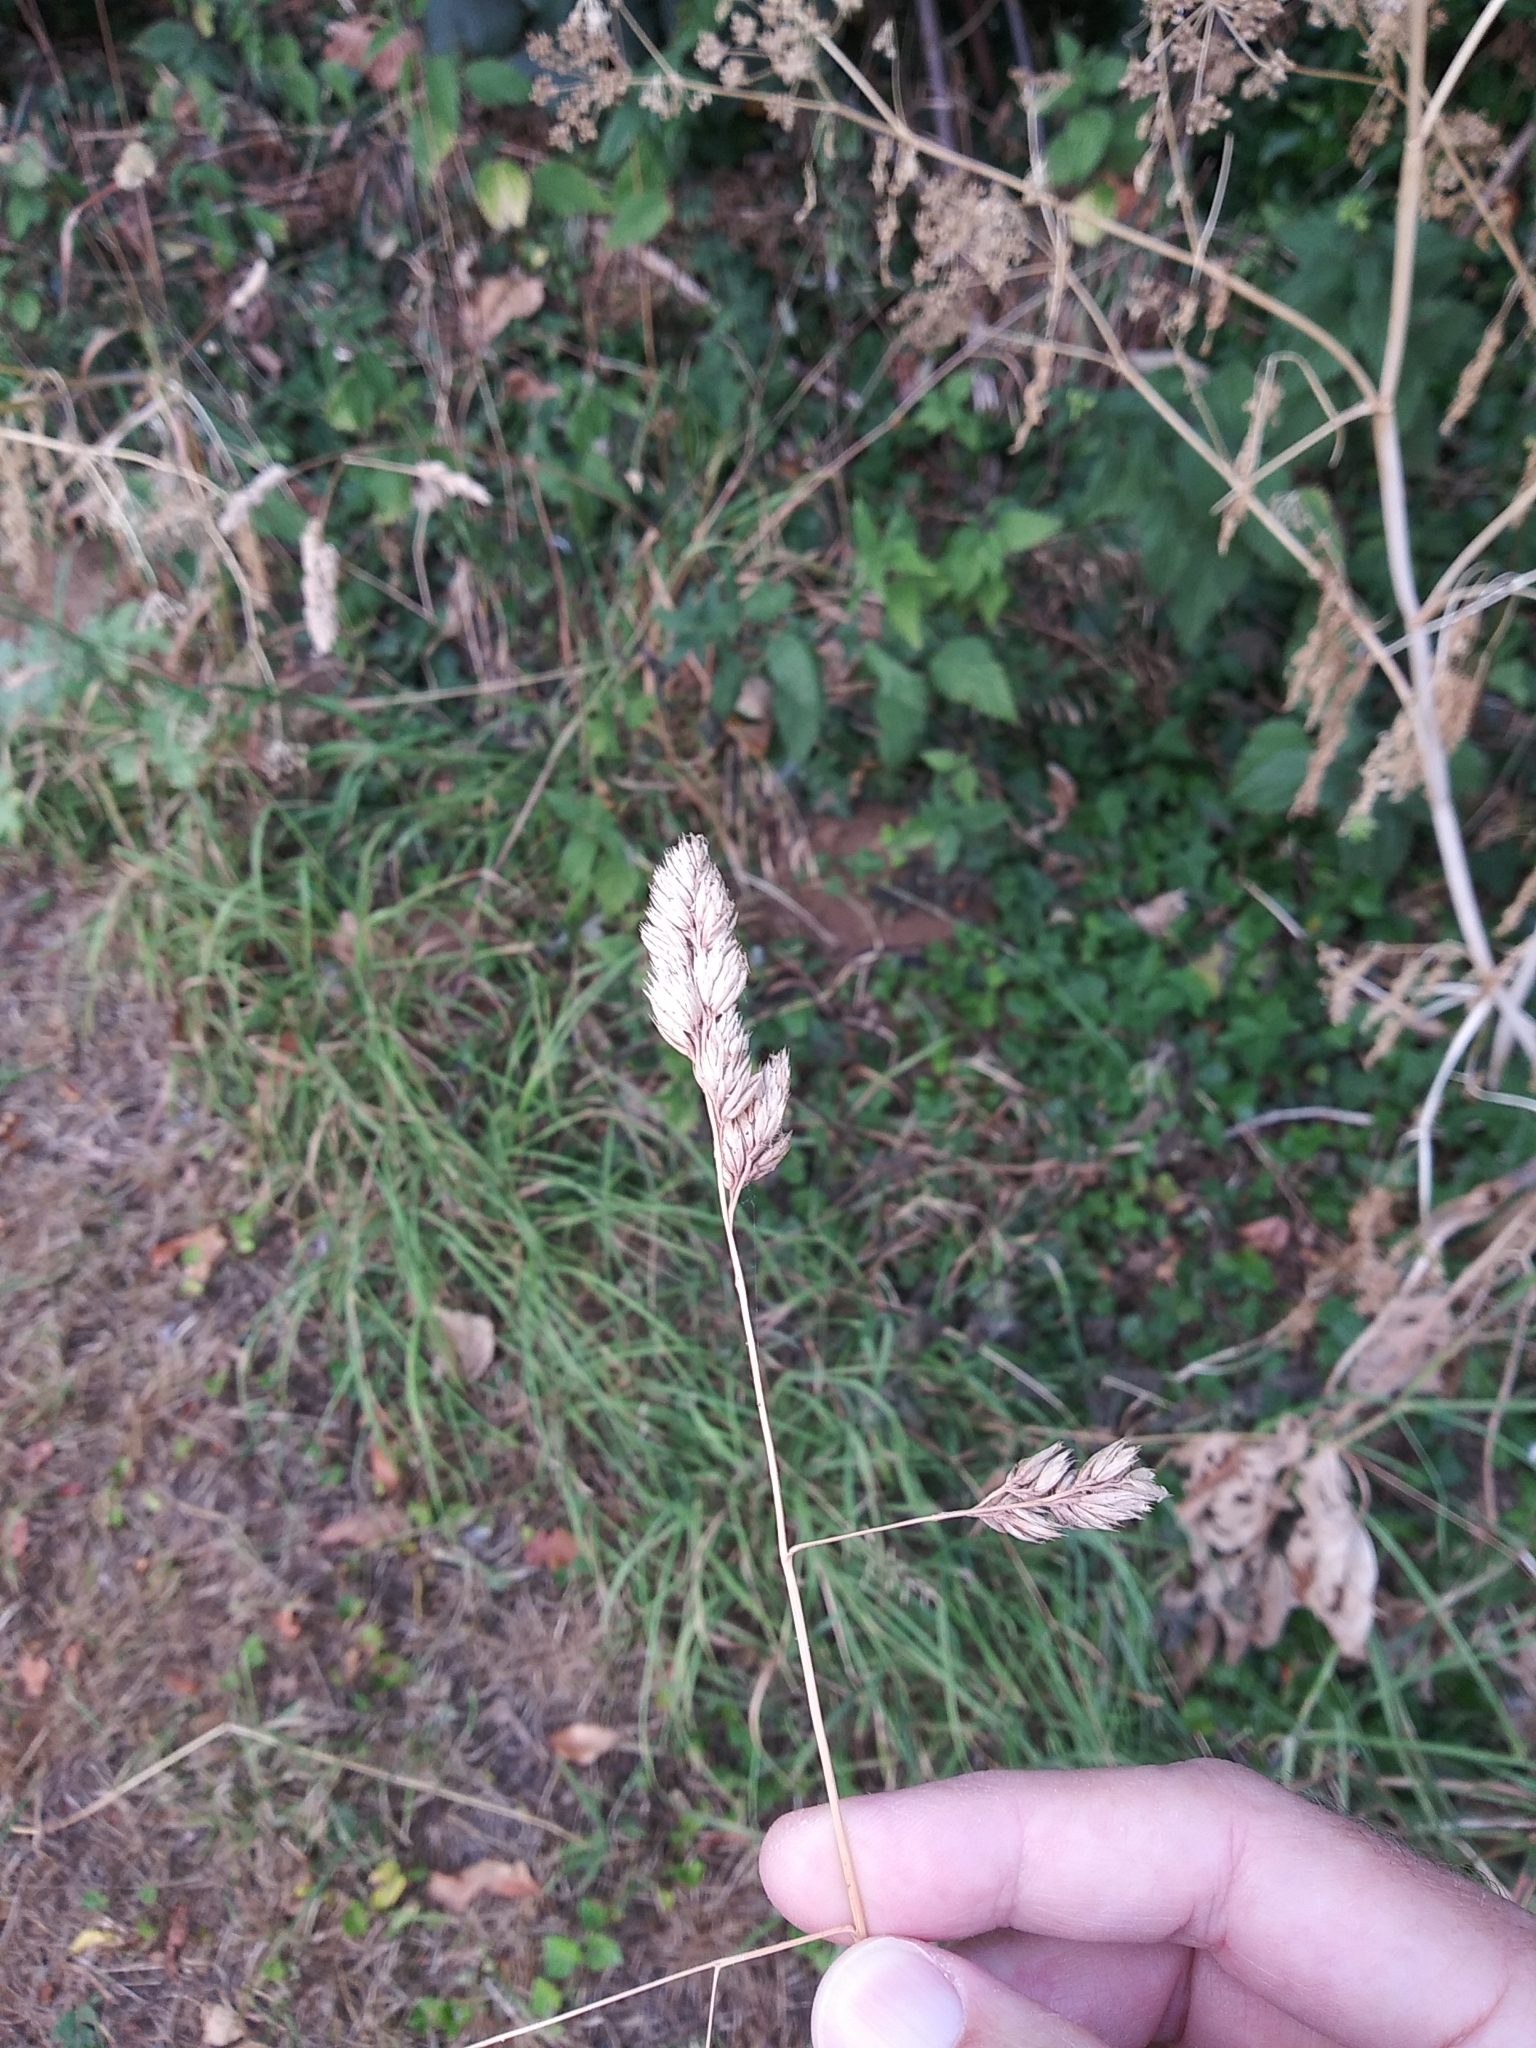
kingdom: Plantae
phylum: Tracheophyta
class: Liliopsida
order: Poales
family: Poaceae
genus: Dactylis
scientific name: Dactylis glomerata
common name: Orchardgrass
